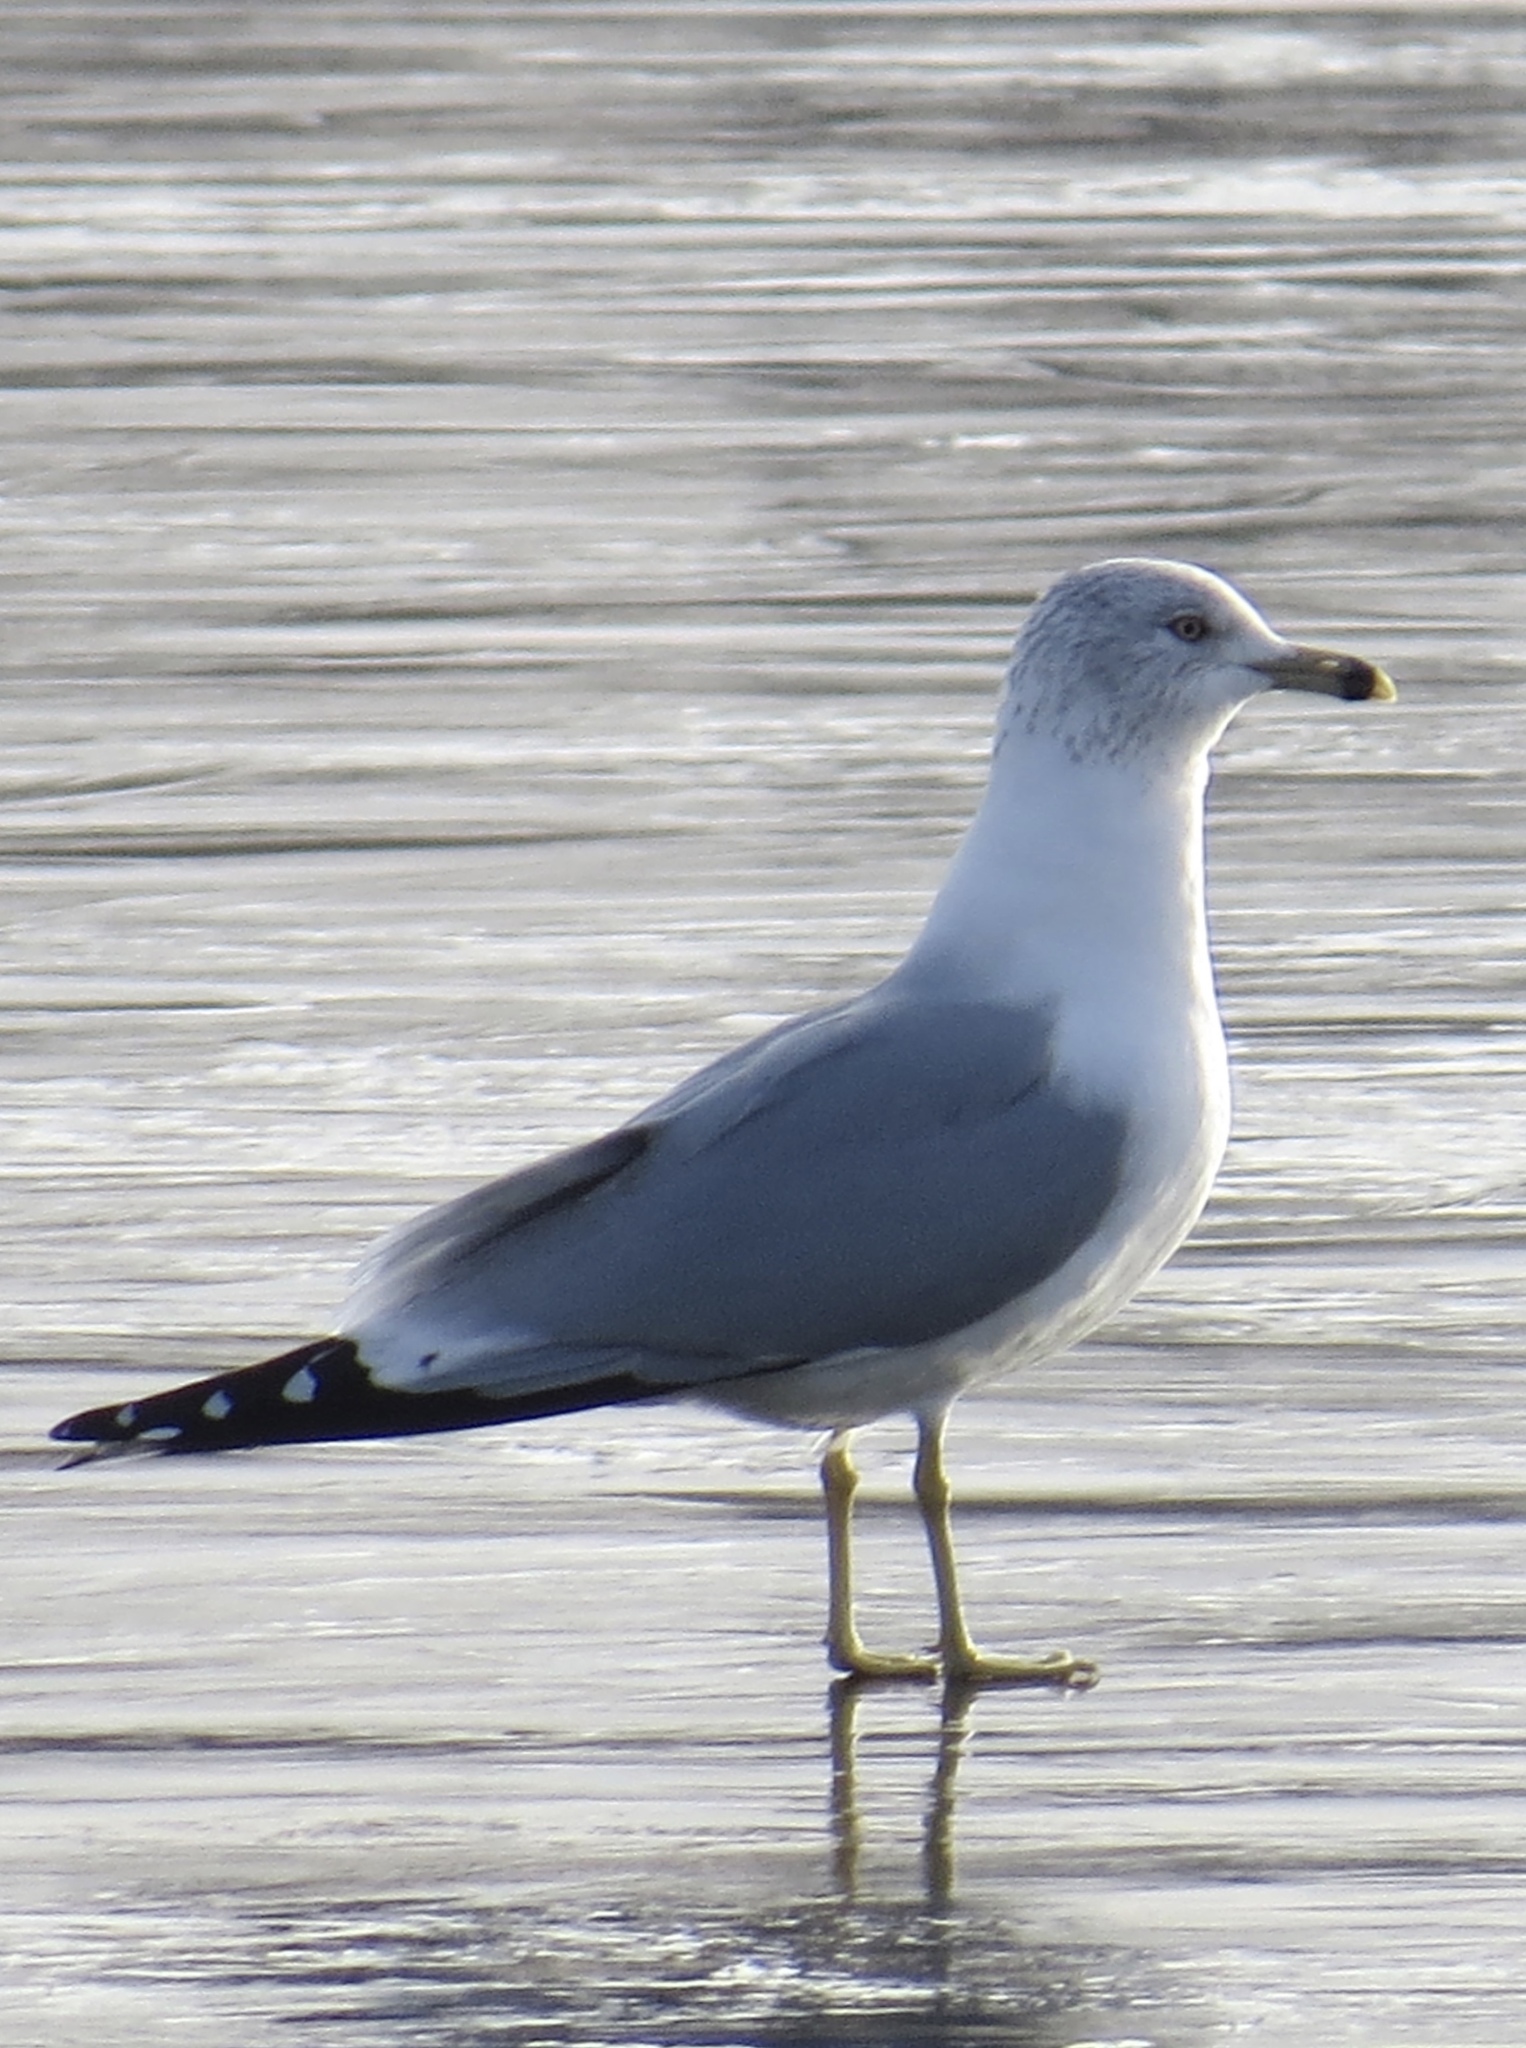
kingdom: Animalia
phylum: Chordata
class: Aves
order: Charadriiformes
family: Laridae
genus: Larus
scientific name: Larus delawarensis
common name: Ring-billed gull
